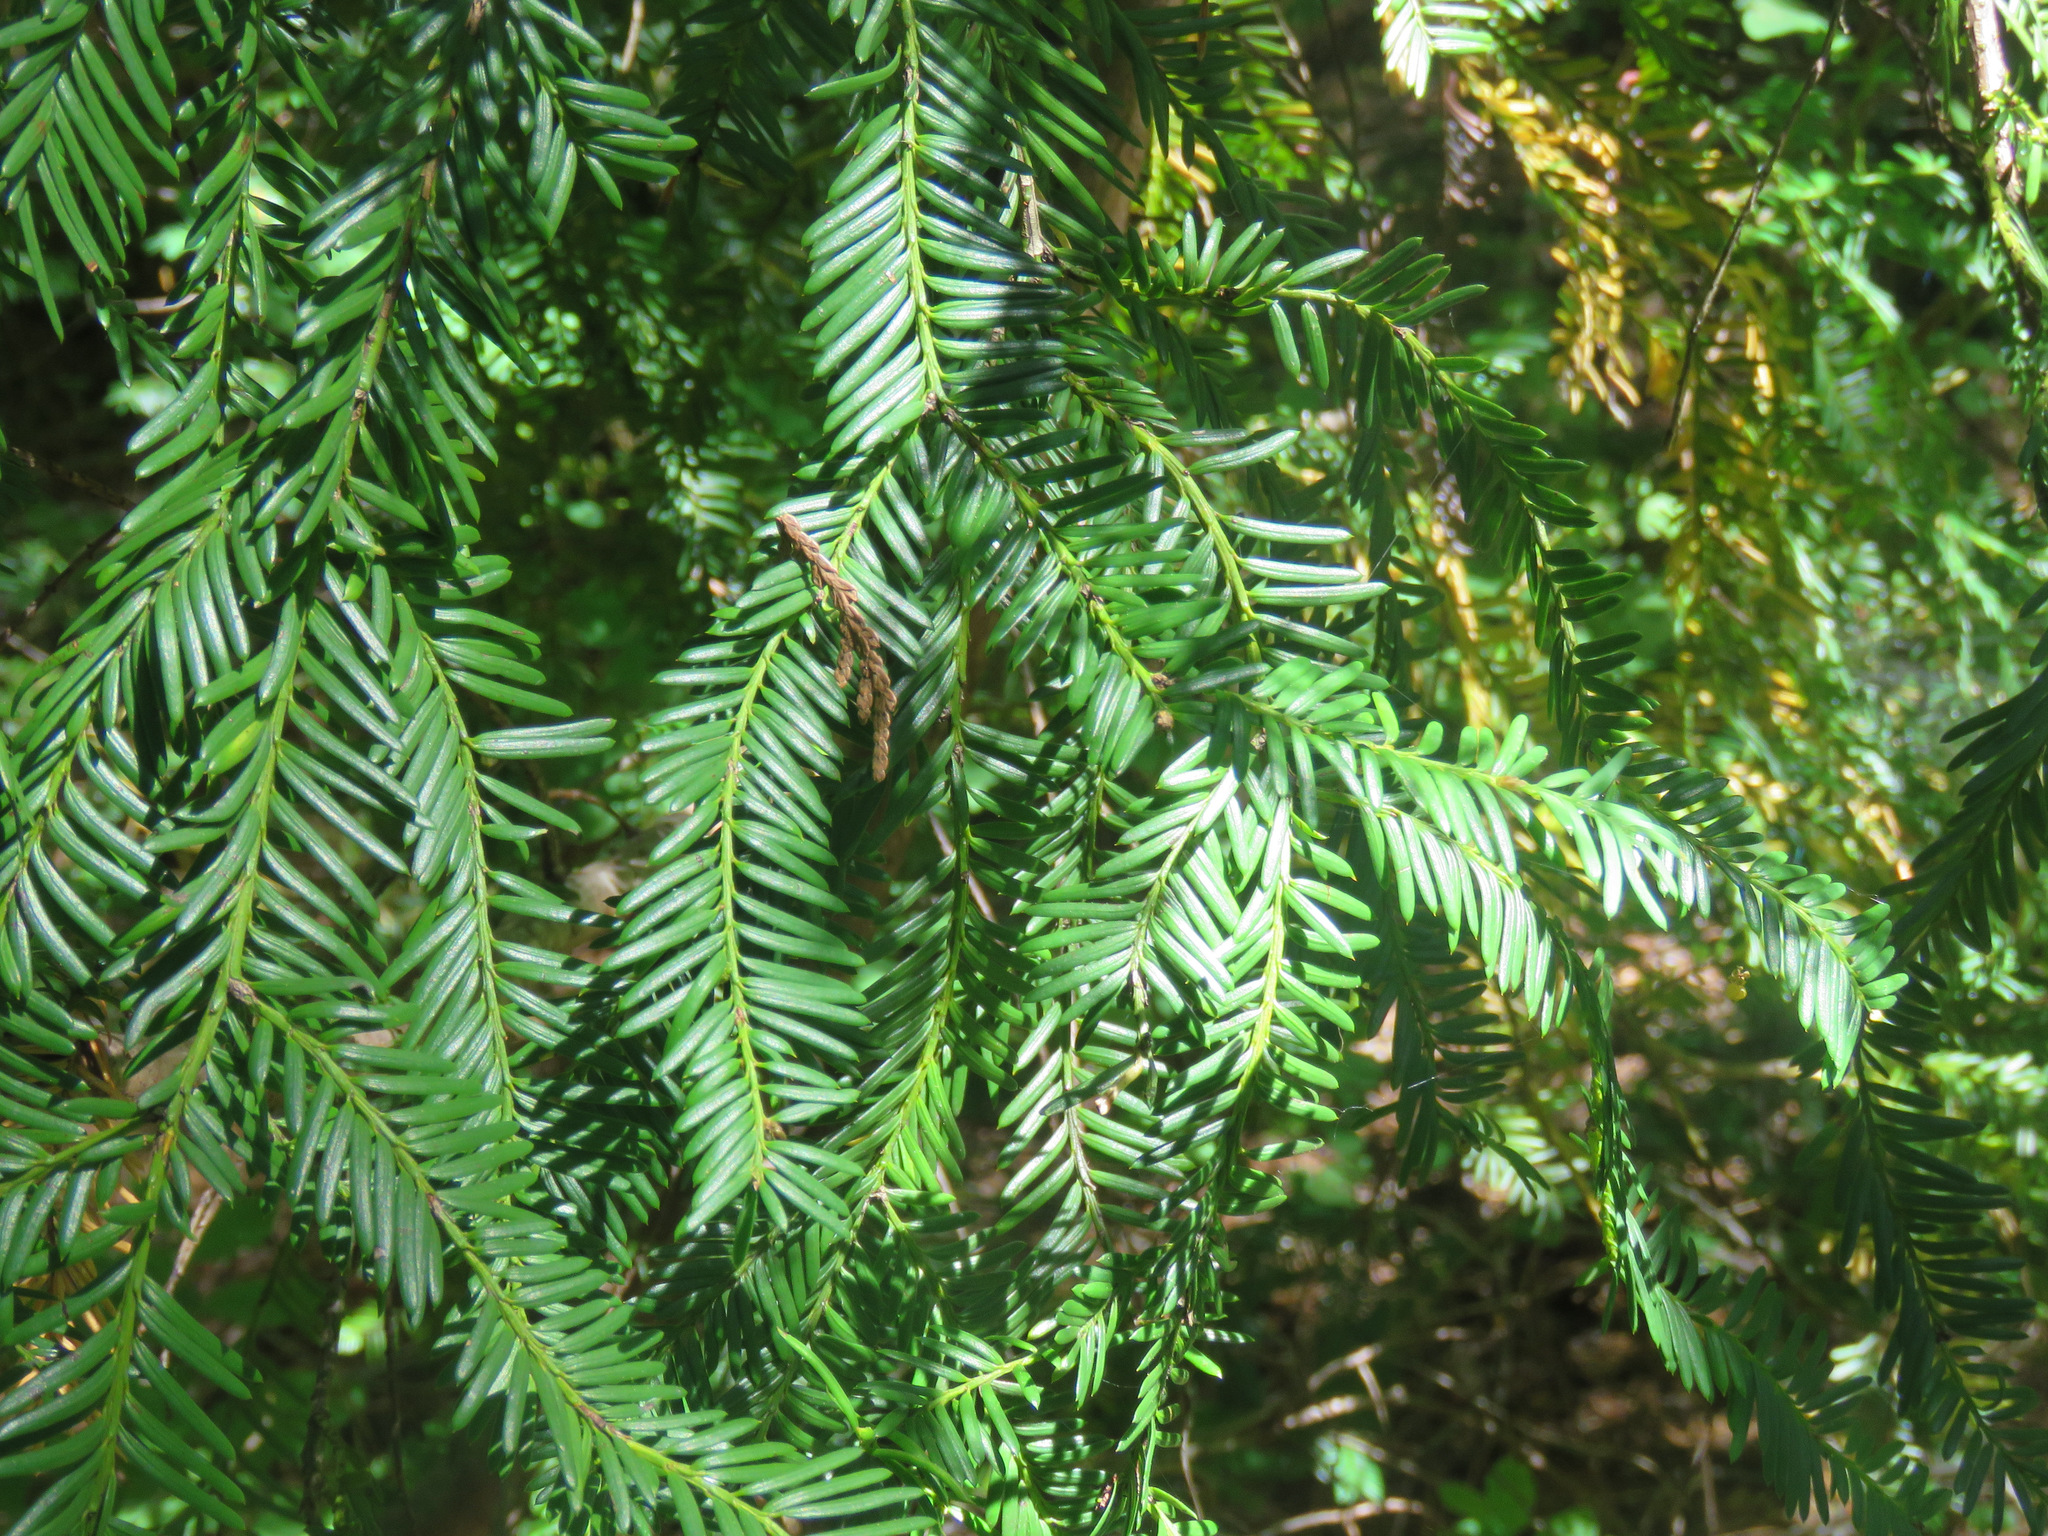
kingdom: Plantae
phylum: Tracheophyta
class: Pinopsida
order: Pinales
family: Taxaceae
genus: Taxus
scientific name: Taxus brevifolia
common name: Pacific yew
